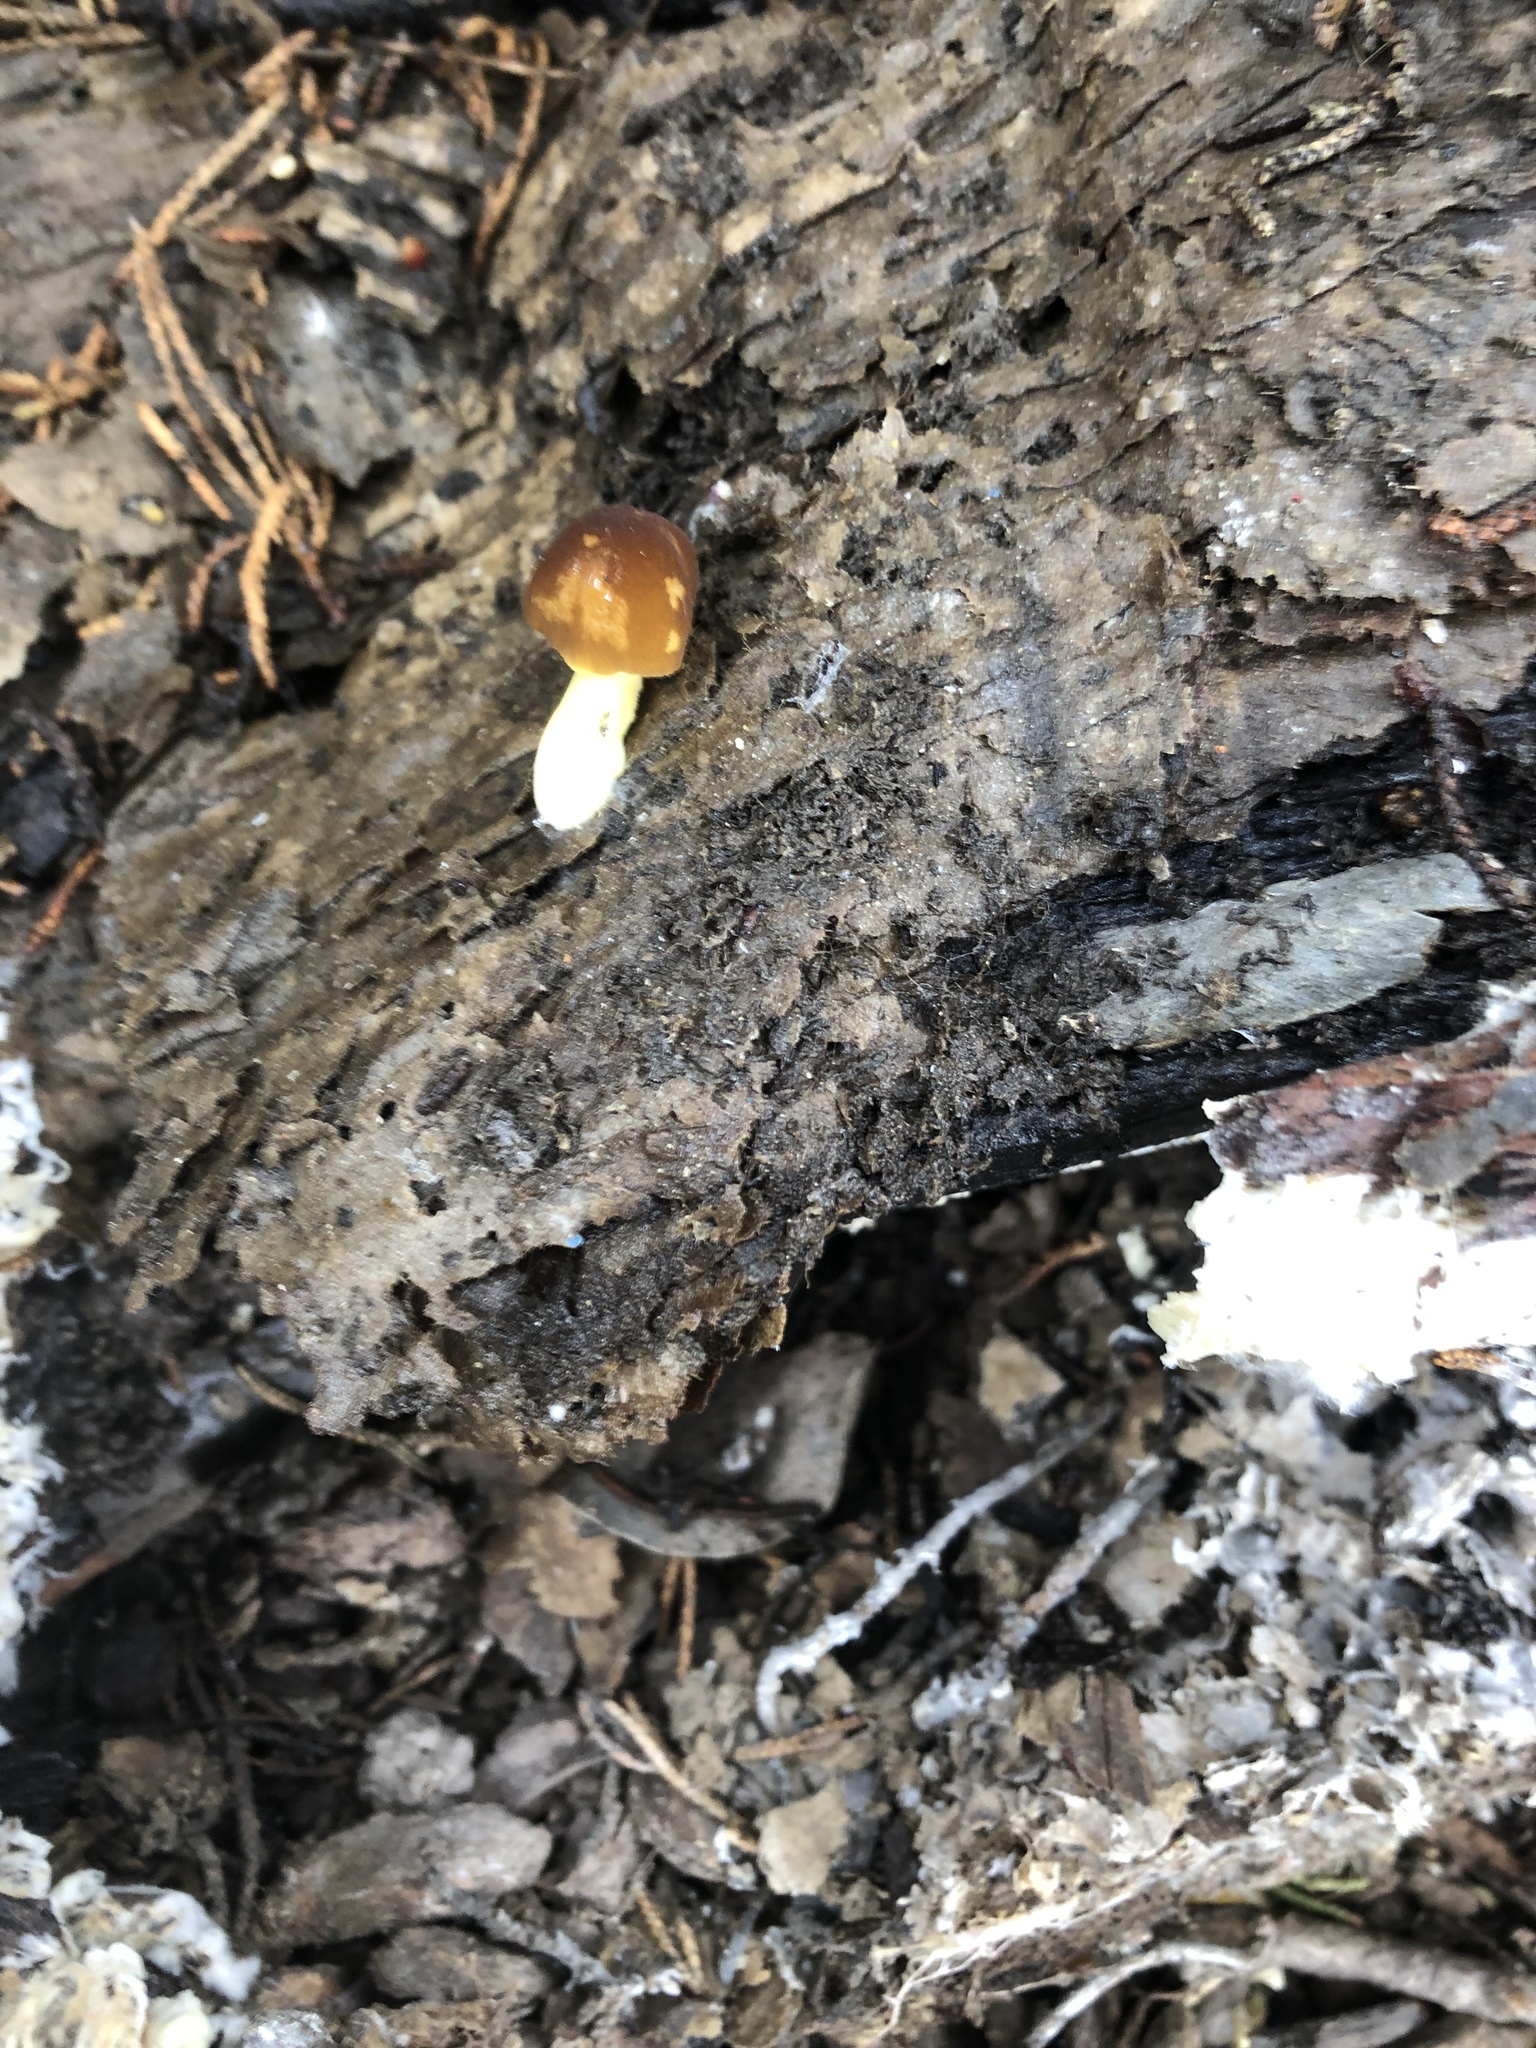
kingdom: Fungi
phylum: Basidiomycota
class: Agaricomycetes
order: Agaricales
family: Pluteaceae
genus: Pluteus
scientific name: Pluteus romellii
